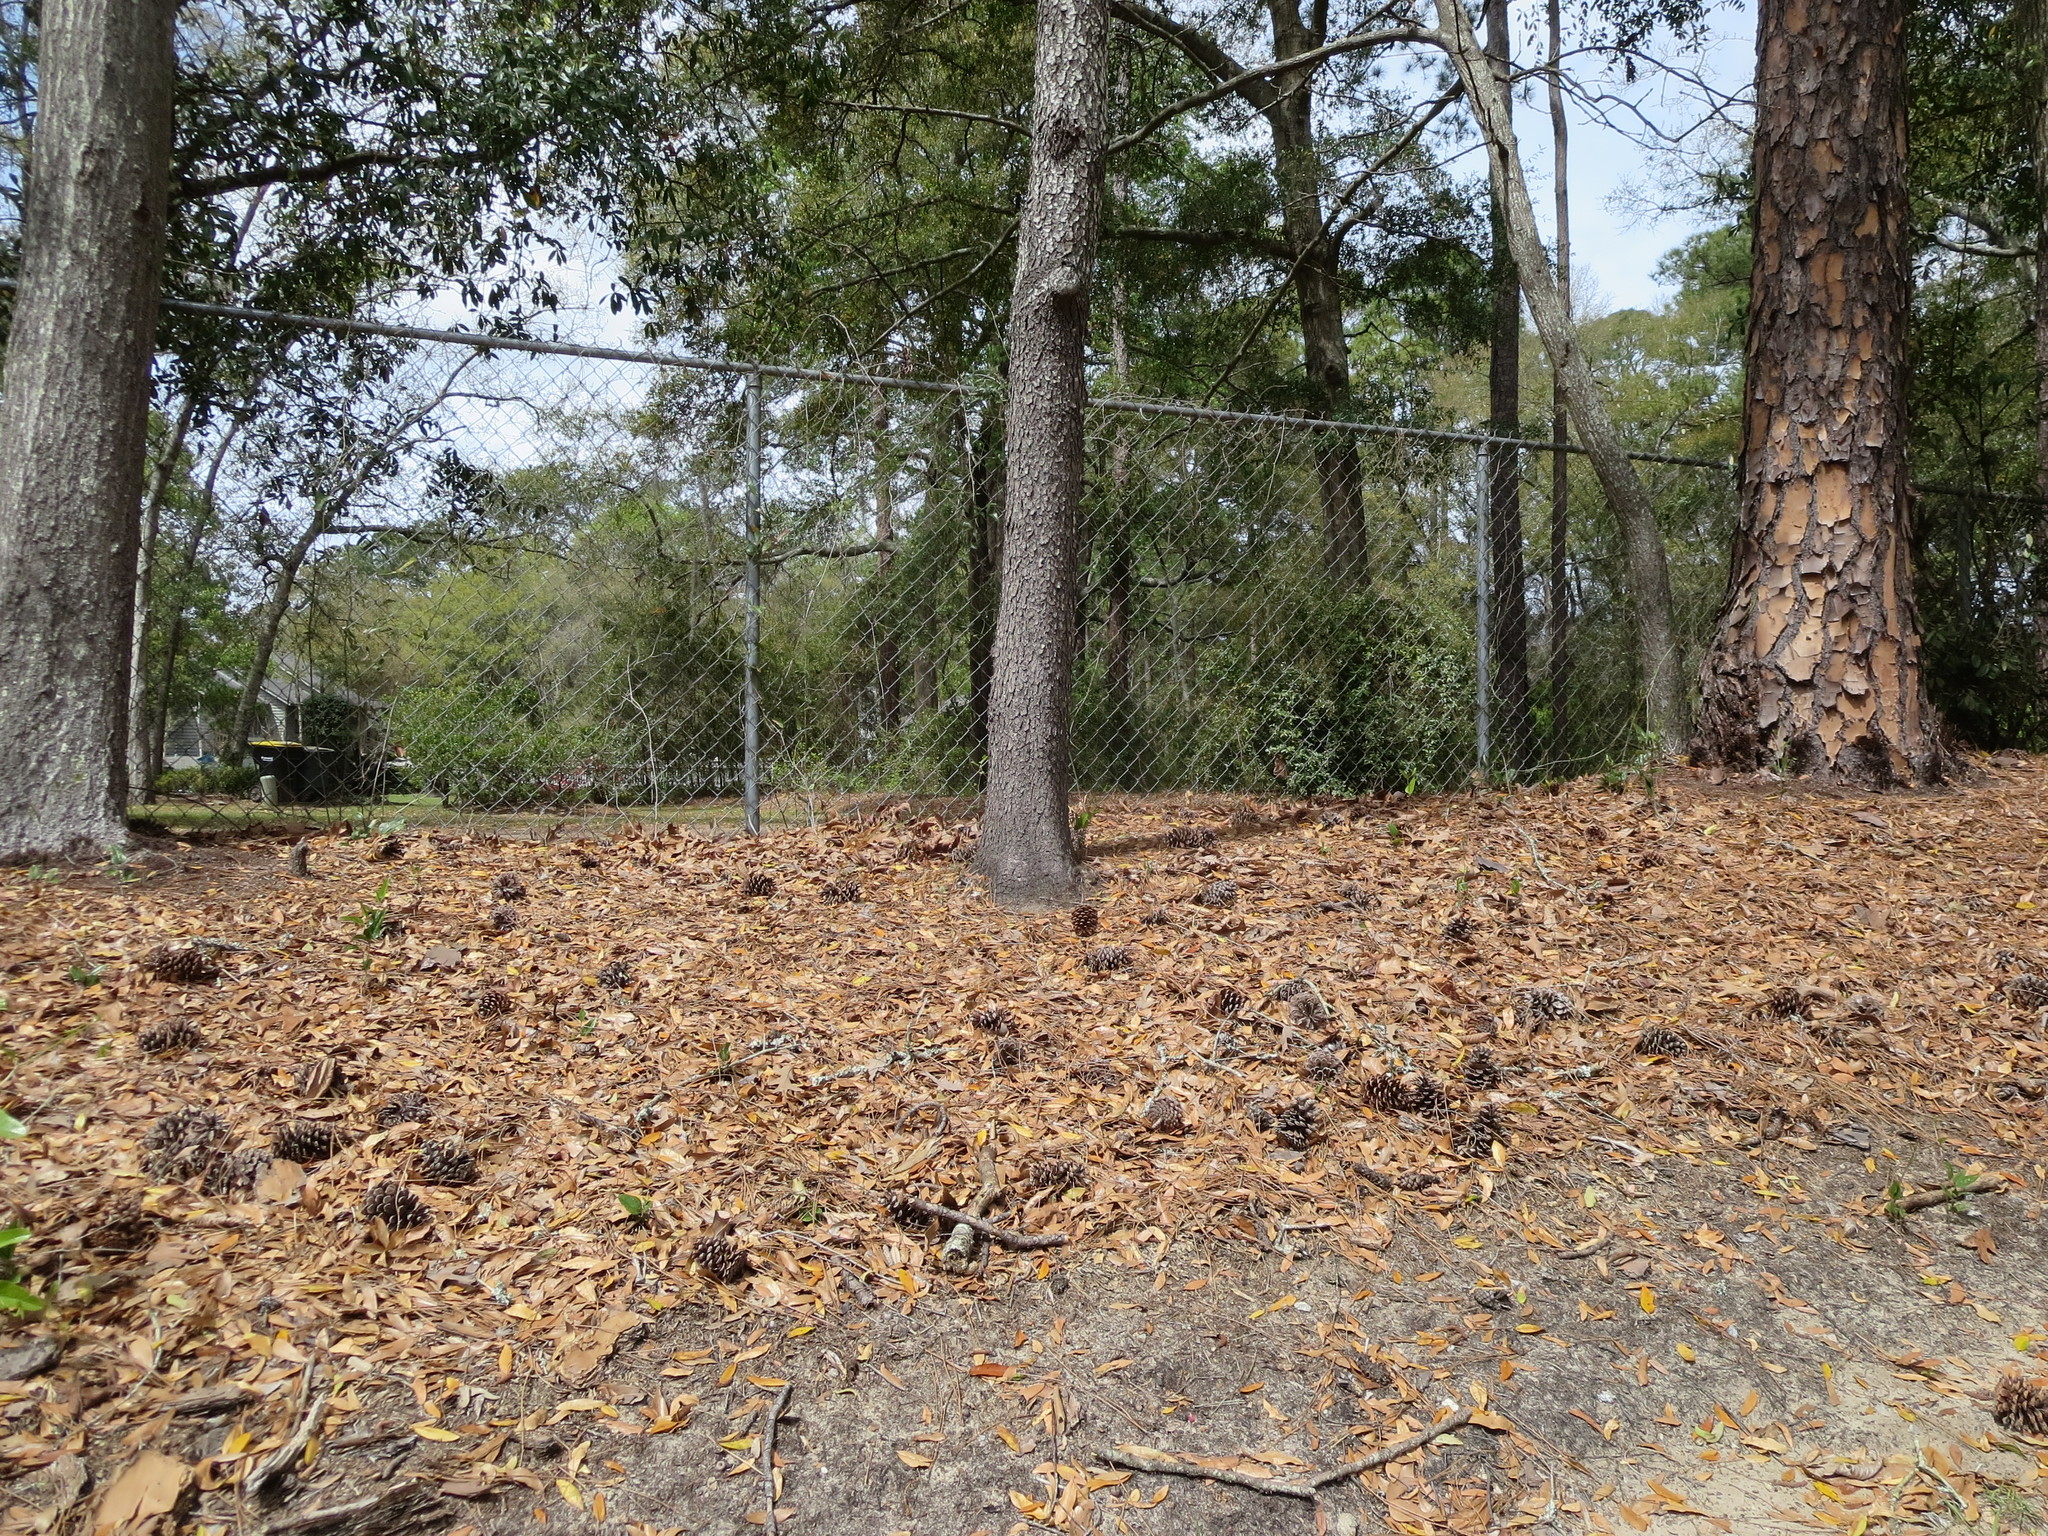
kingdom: Plantae
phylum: Tracheophyta
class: Magnoliopsida
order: Rosales
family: Rosaceae
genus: Prunus
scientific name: Prunus serotina
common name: Black cherry
